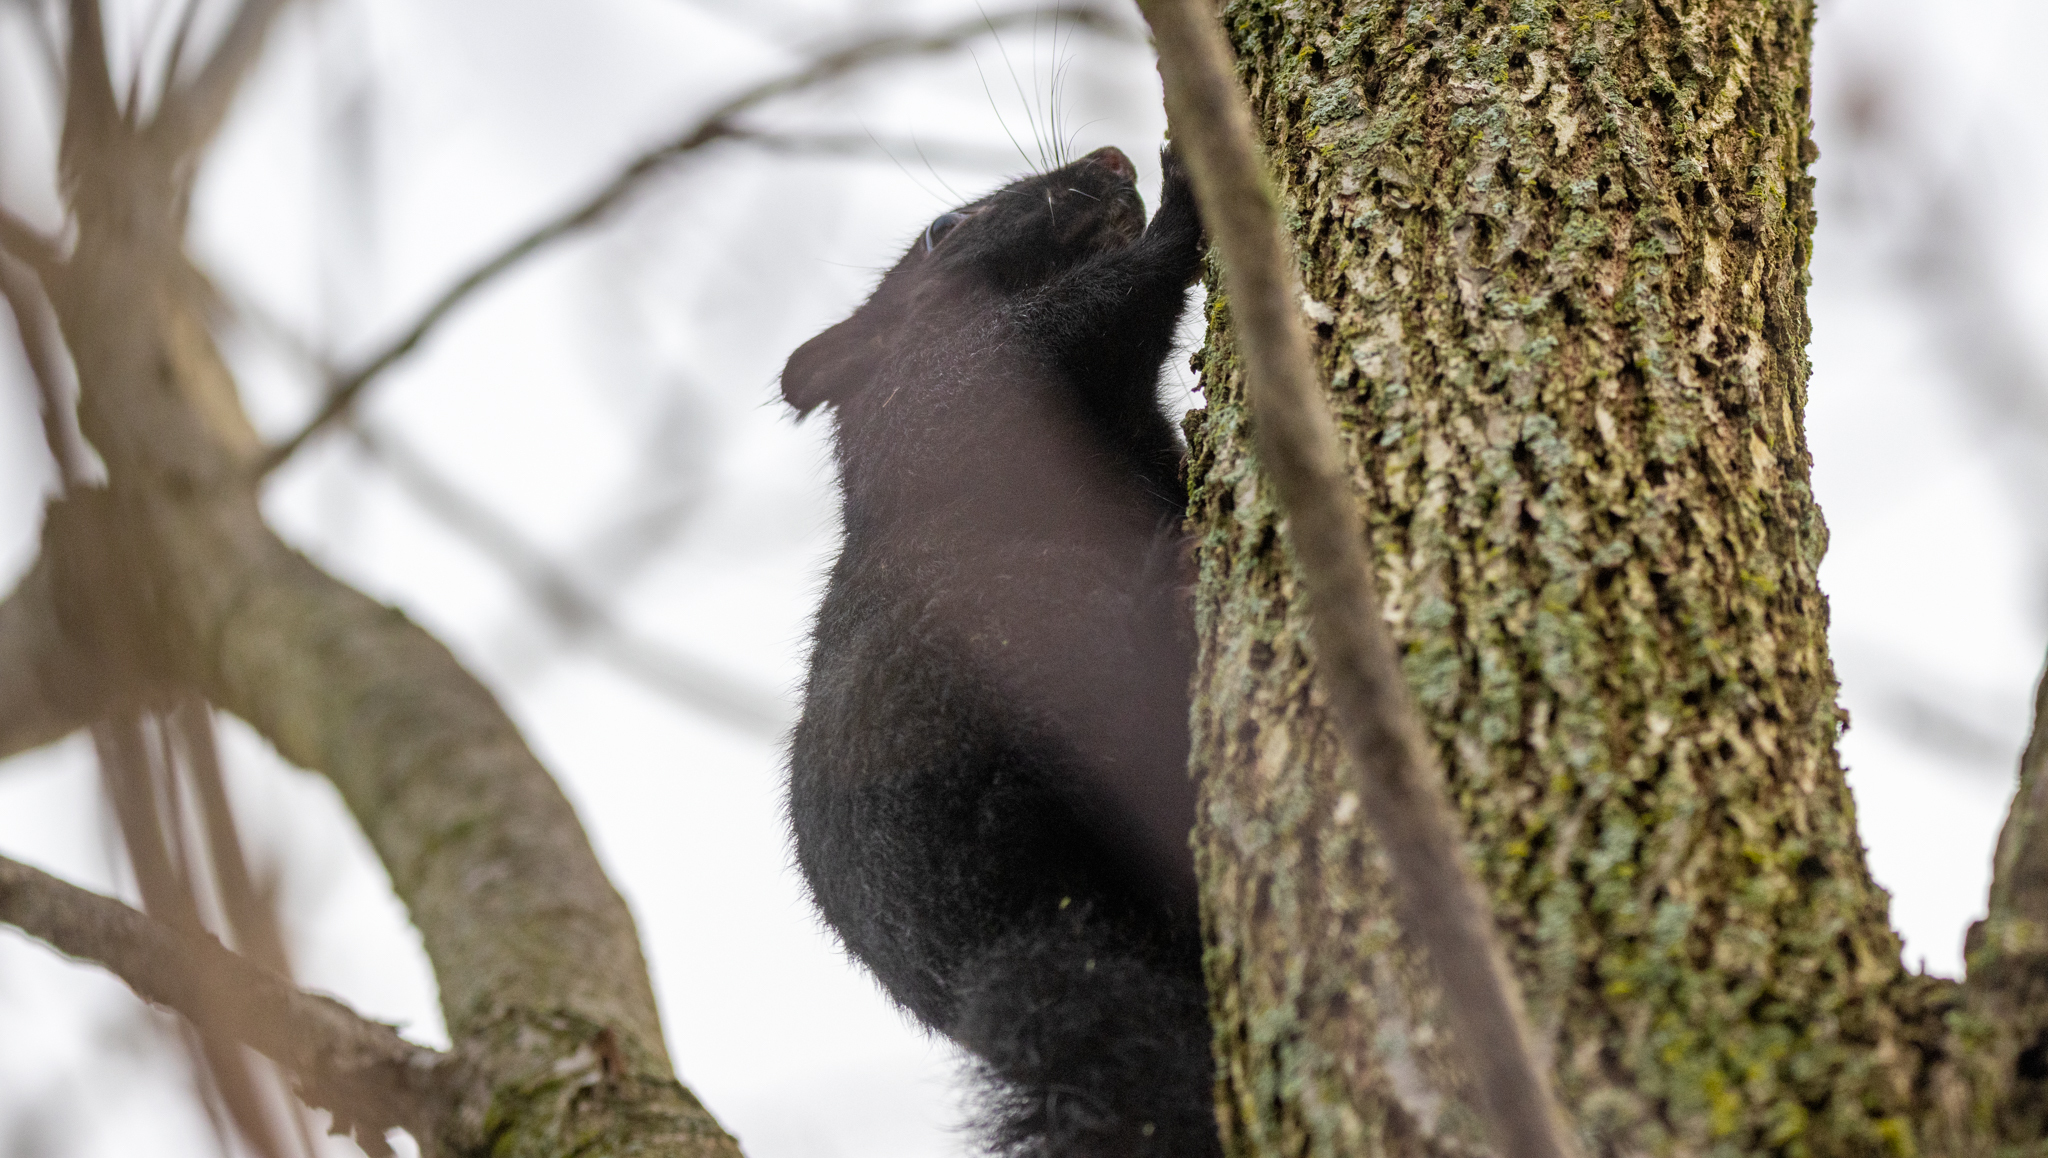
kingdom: Animalia
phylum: Chordata
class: Mammalia
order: Rodentia
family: Sciuridae
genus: Sciurus
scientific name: Sciurus carolinensis
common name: Eastern gray squirrel
